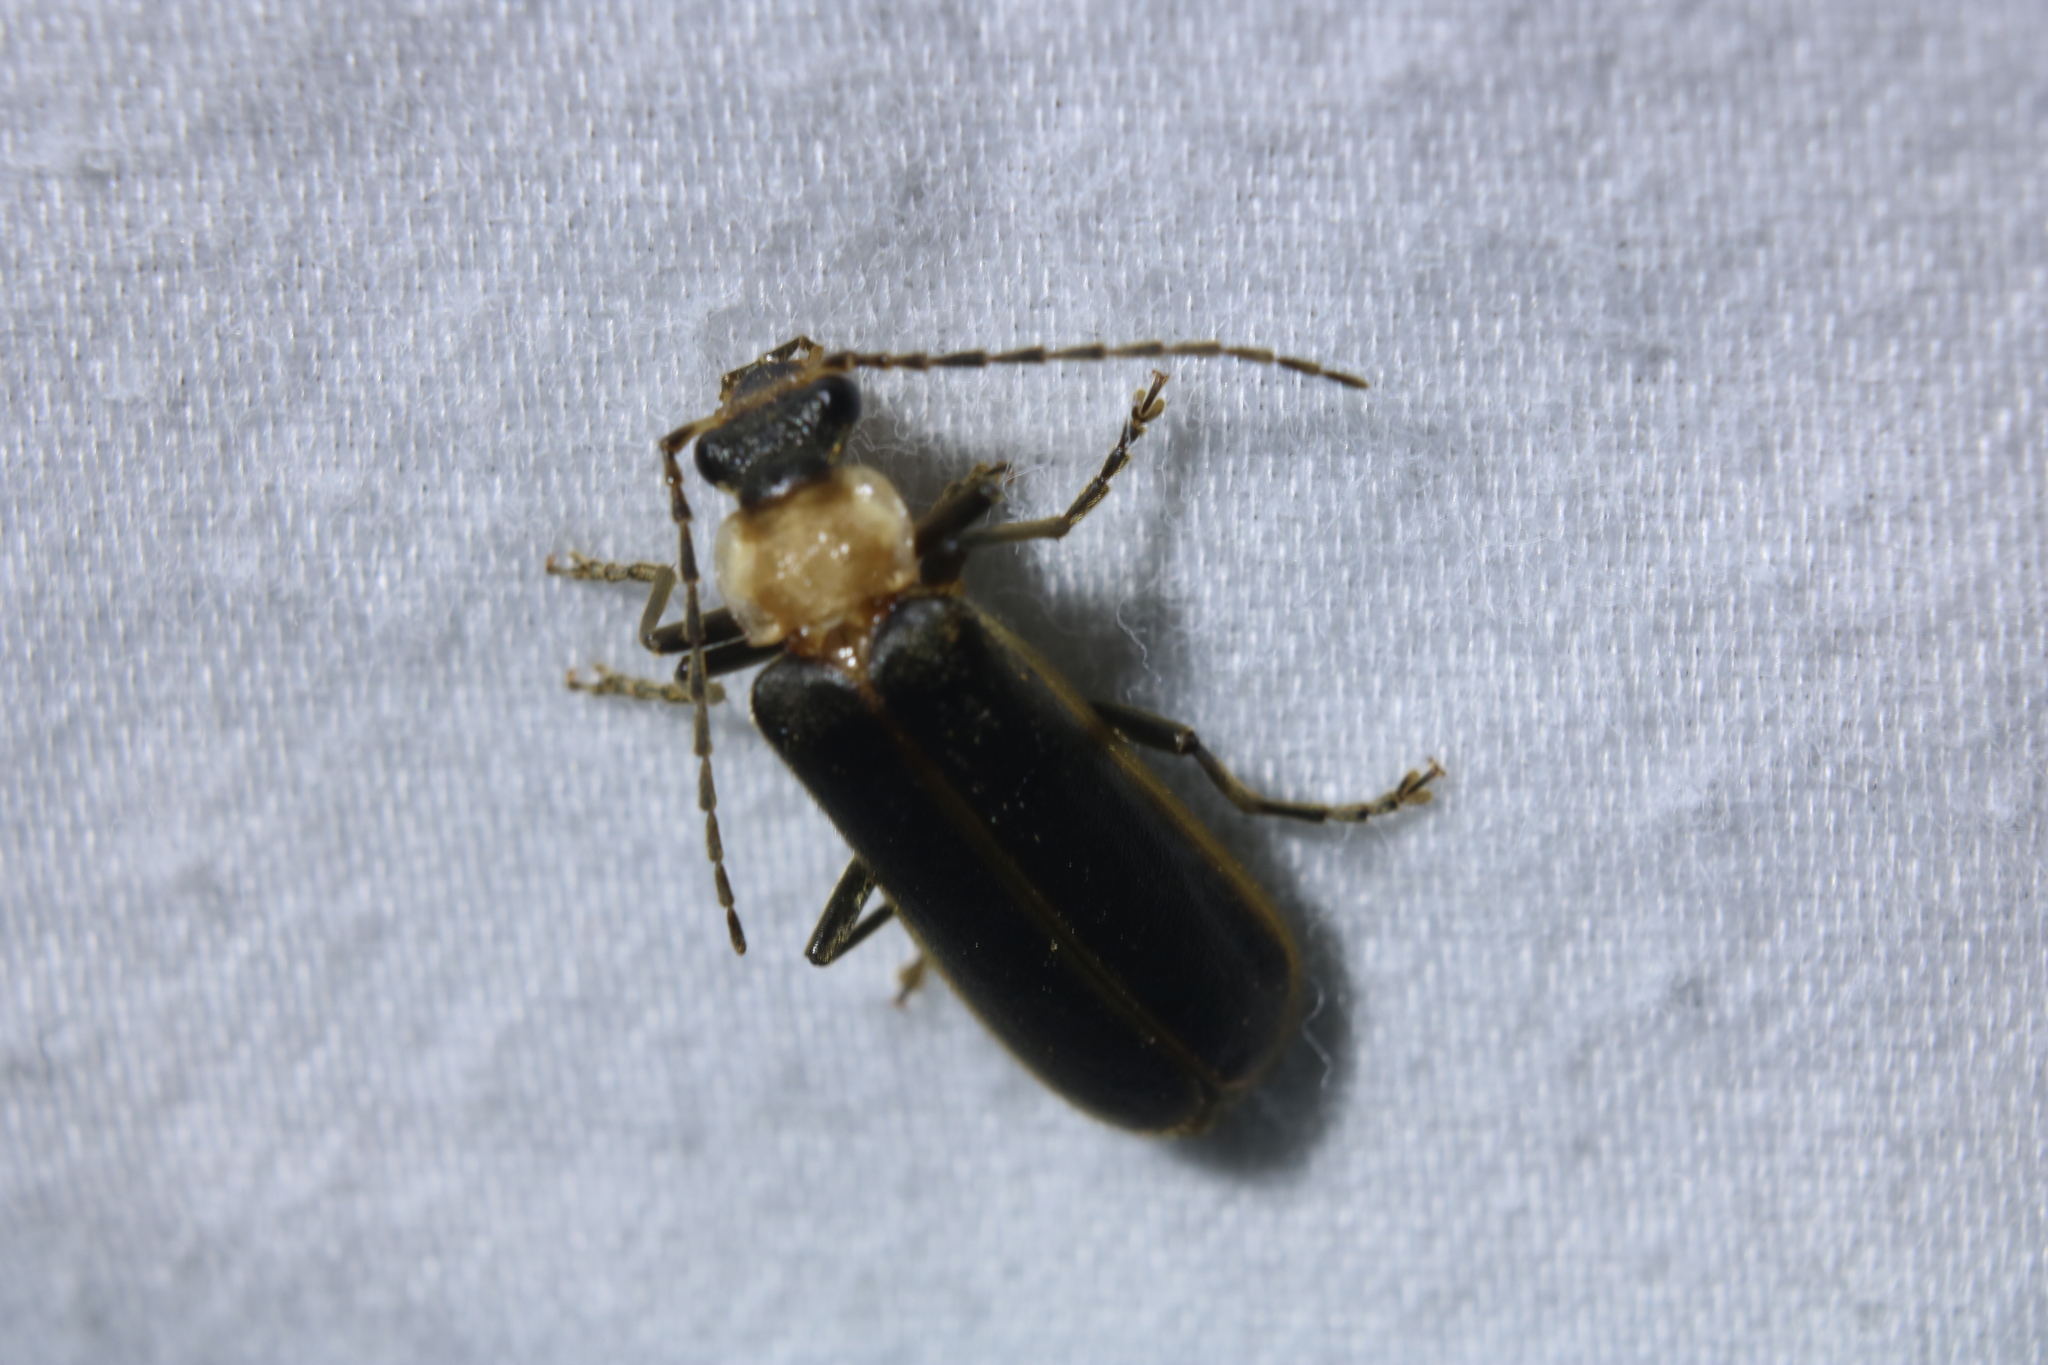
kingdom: Animalia
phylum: Arthropoda
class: Insecta
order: Coleoptera
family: Cantharidae
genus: Podabrus
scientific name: Podabrus flavicollis
